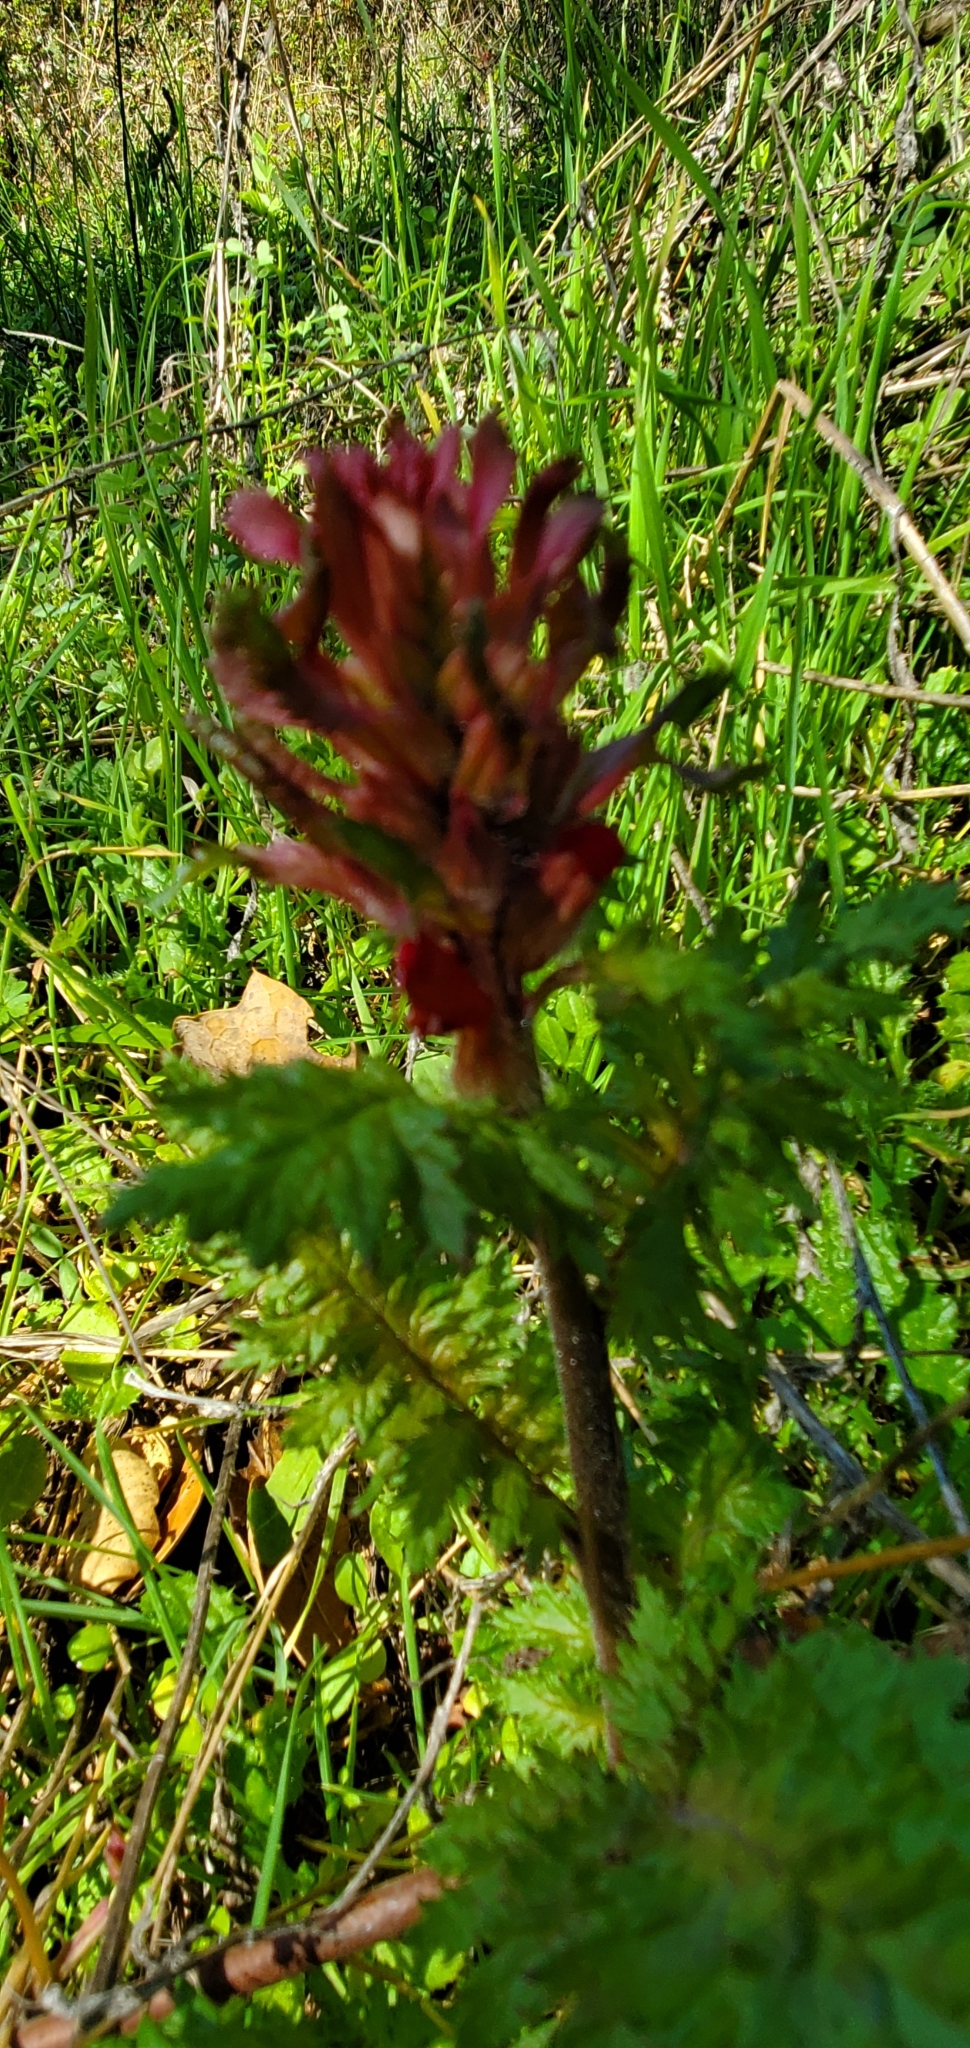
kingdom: Plantae
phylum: Tracheophyta
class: Magnoliopsida
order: Lamiales
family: Orobanchaceae
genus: Pedicularis
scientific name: Pedicularis densiflora
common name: Indian warrior
